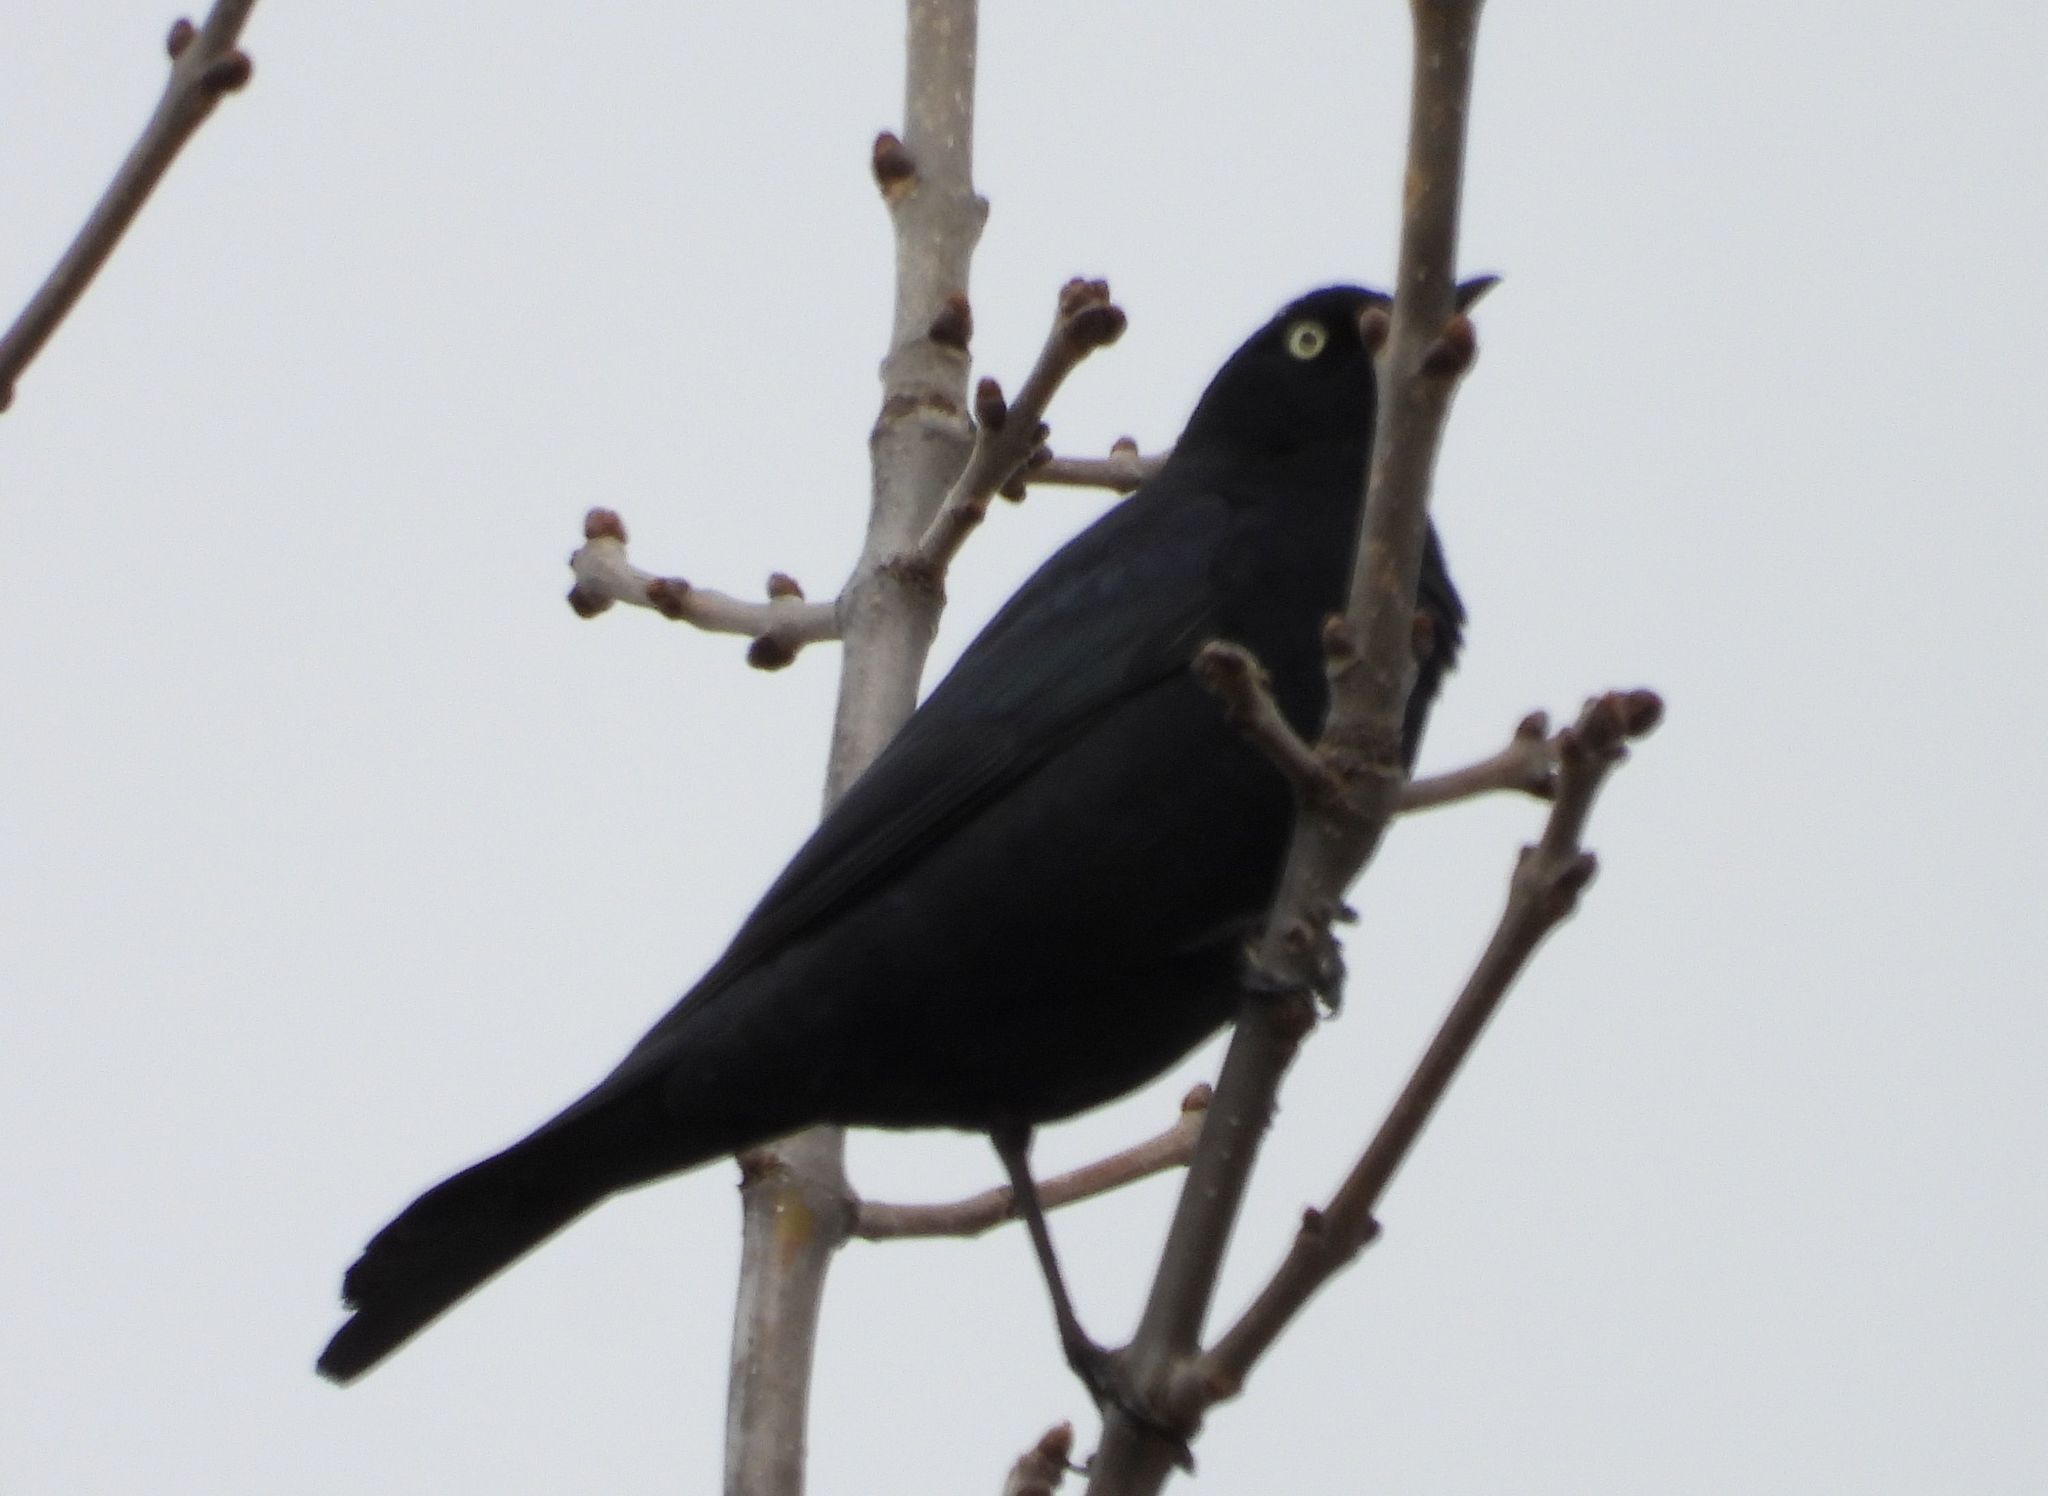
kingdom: Animalia
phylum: Chordata
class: Aves
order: Passeriformes
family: Icteridae
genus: Euphagus
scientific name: Euphagus carolinus
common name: Rusty blackbird
